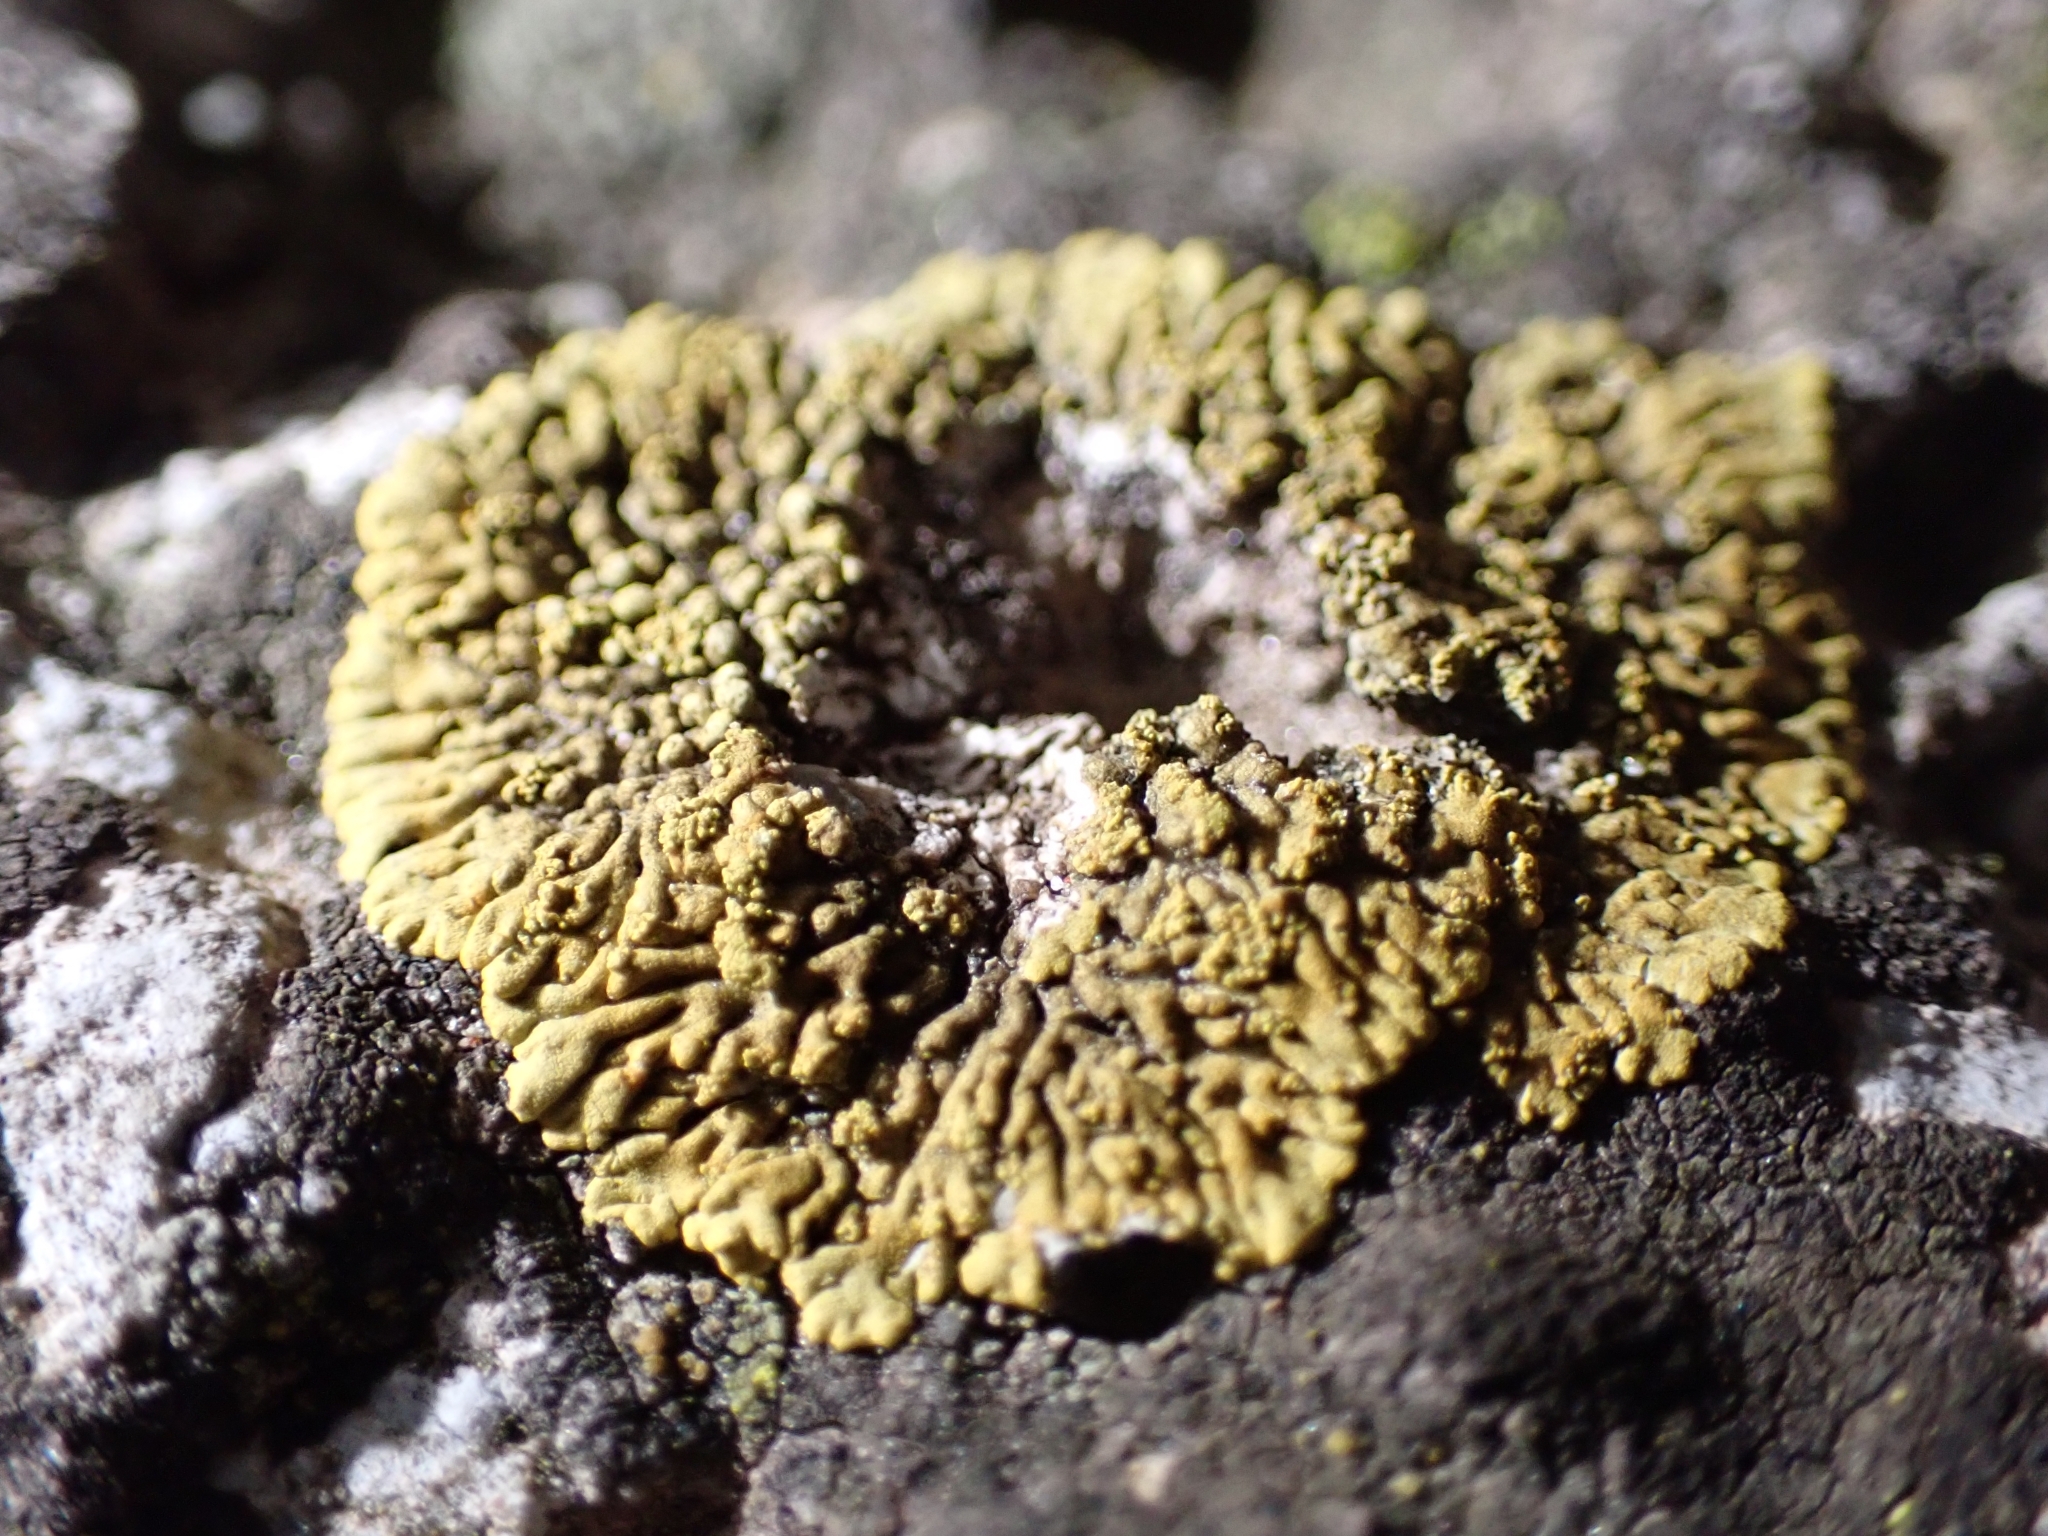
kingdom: Fungi
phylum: Ascomycota
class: Lecanoromycetes
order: Teloschistales
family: Teloschistaceae
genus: Calogaya
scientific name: Calogaya decipiens
